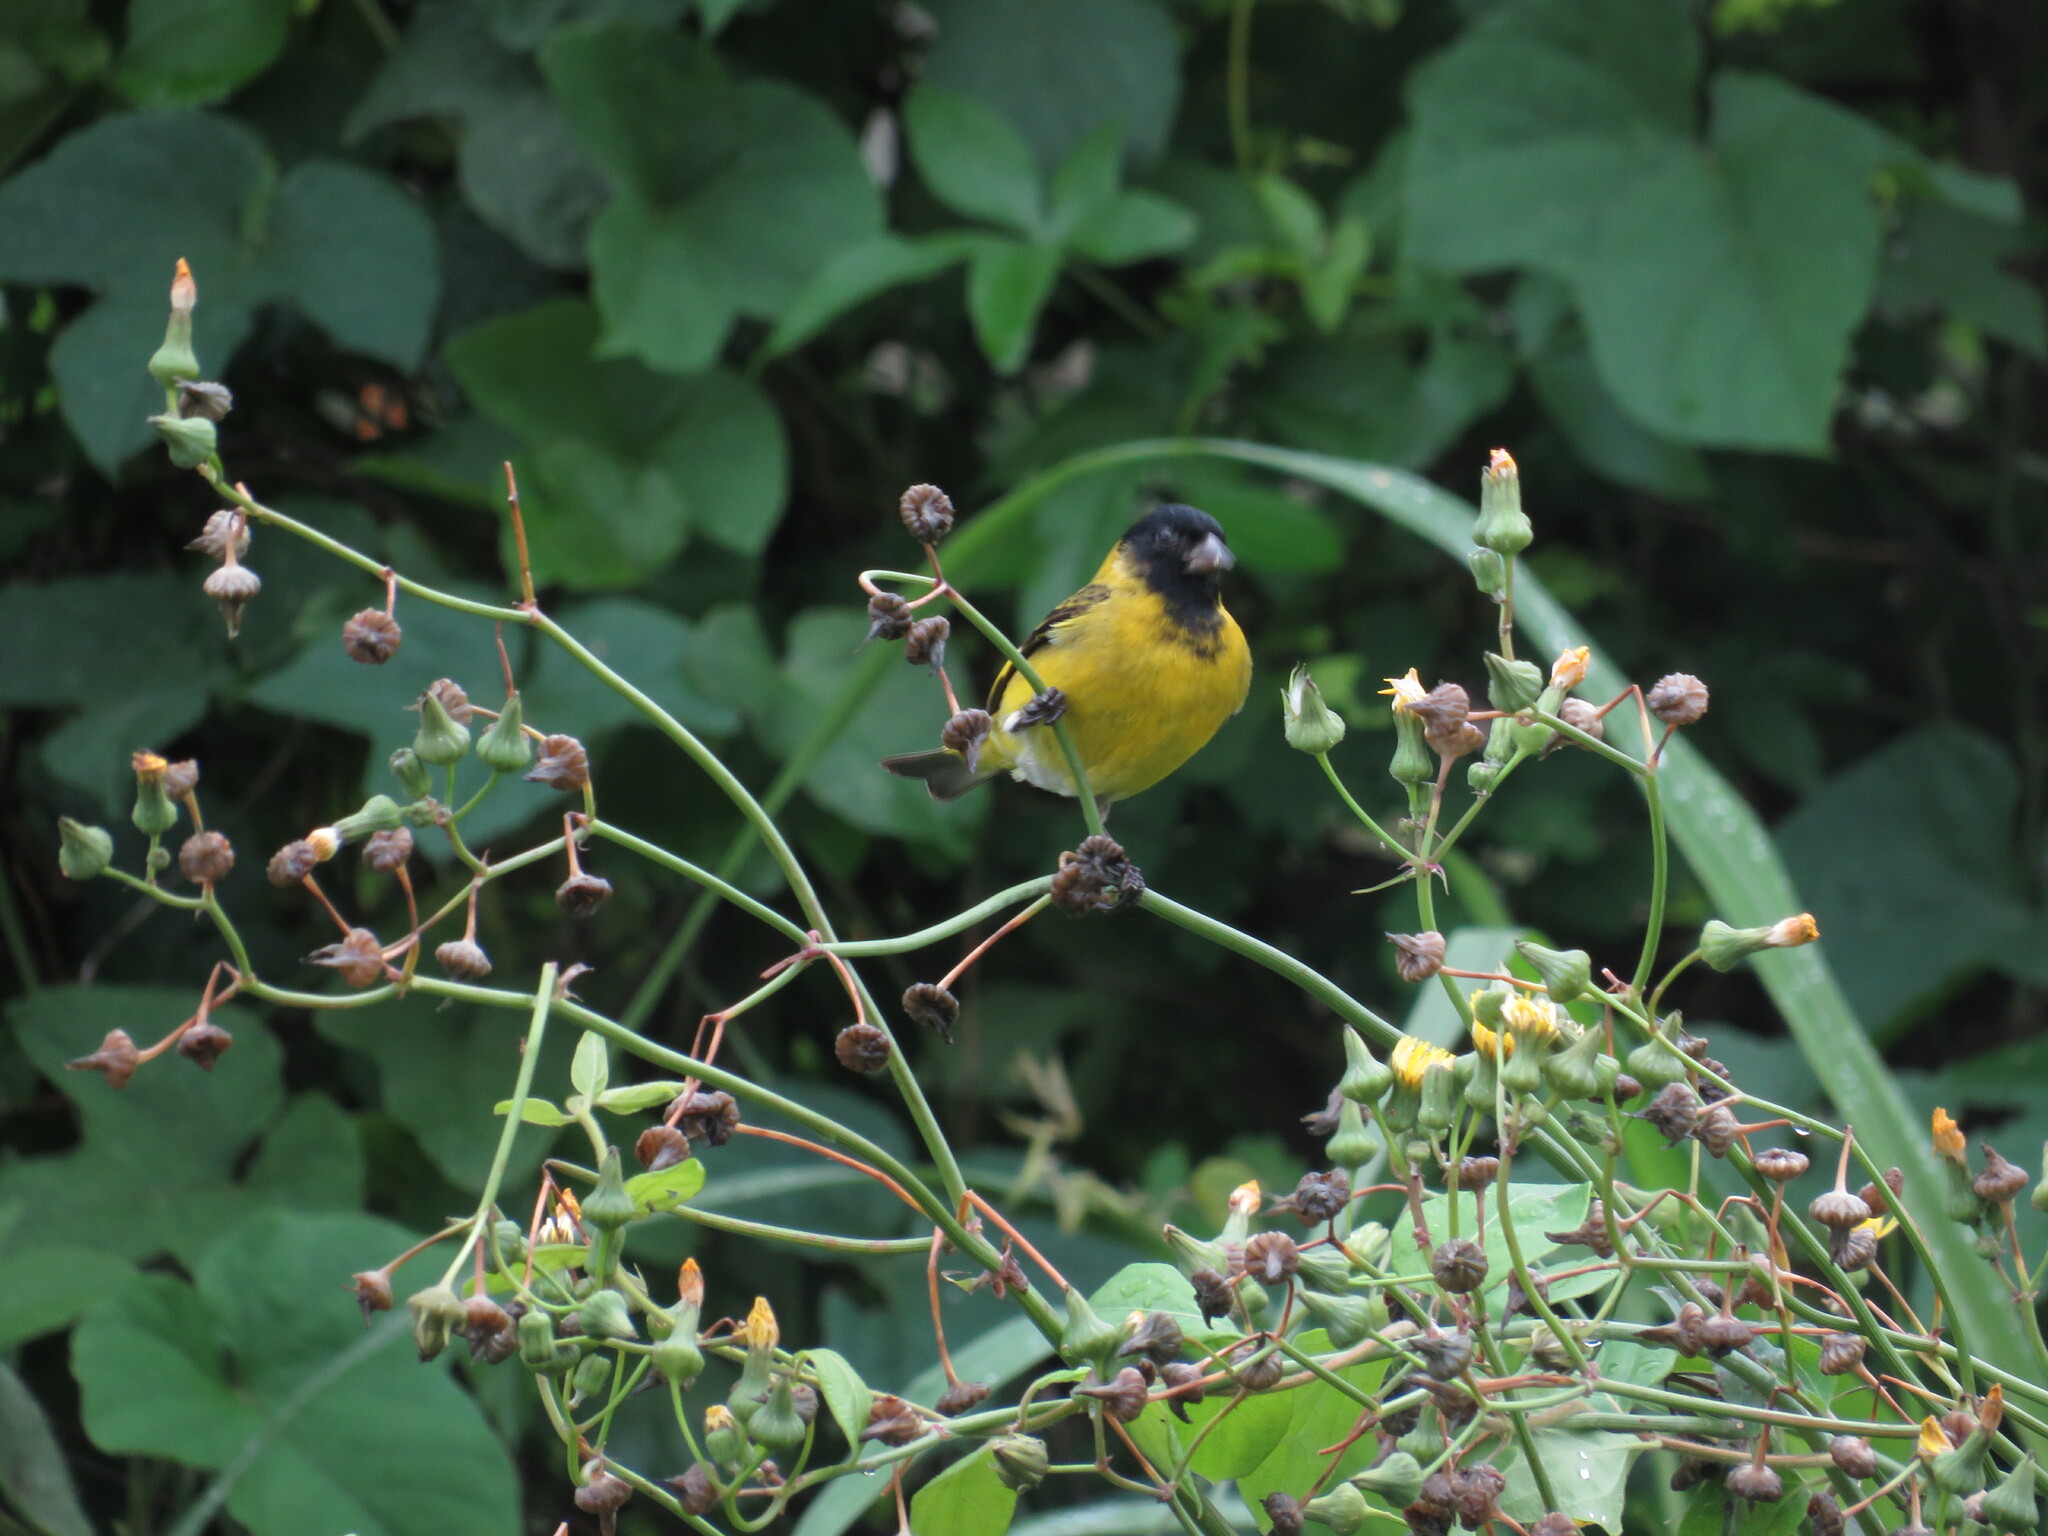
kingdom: Animalia
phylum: Chordata
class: Aves
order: Passeriformes
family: Fringillidae
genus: Spinus
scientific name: Spinus magellanicus
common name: Hooded siskin
